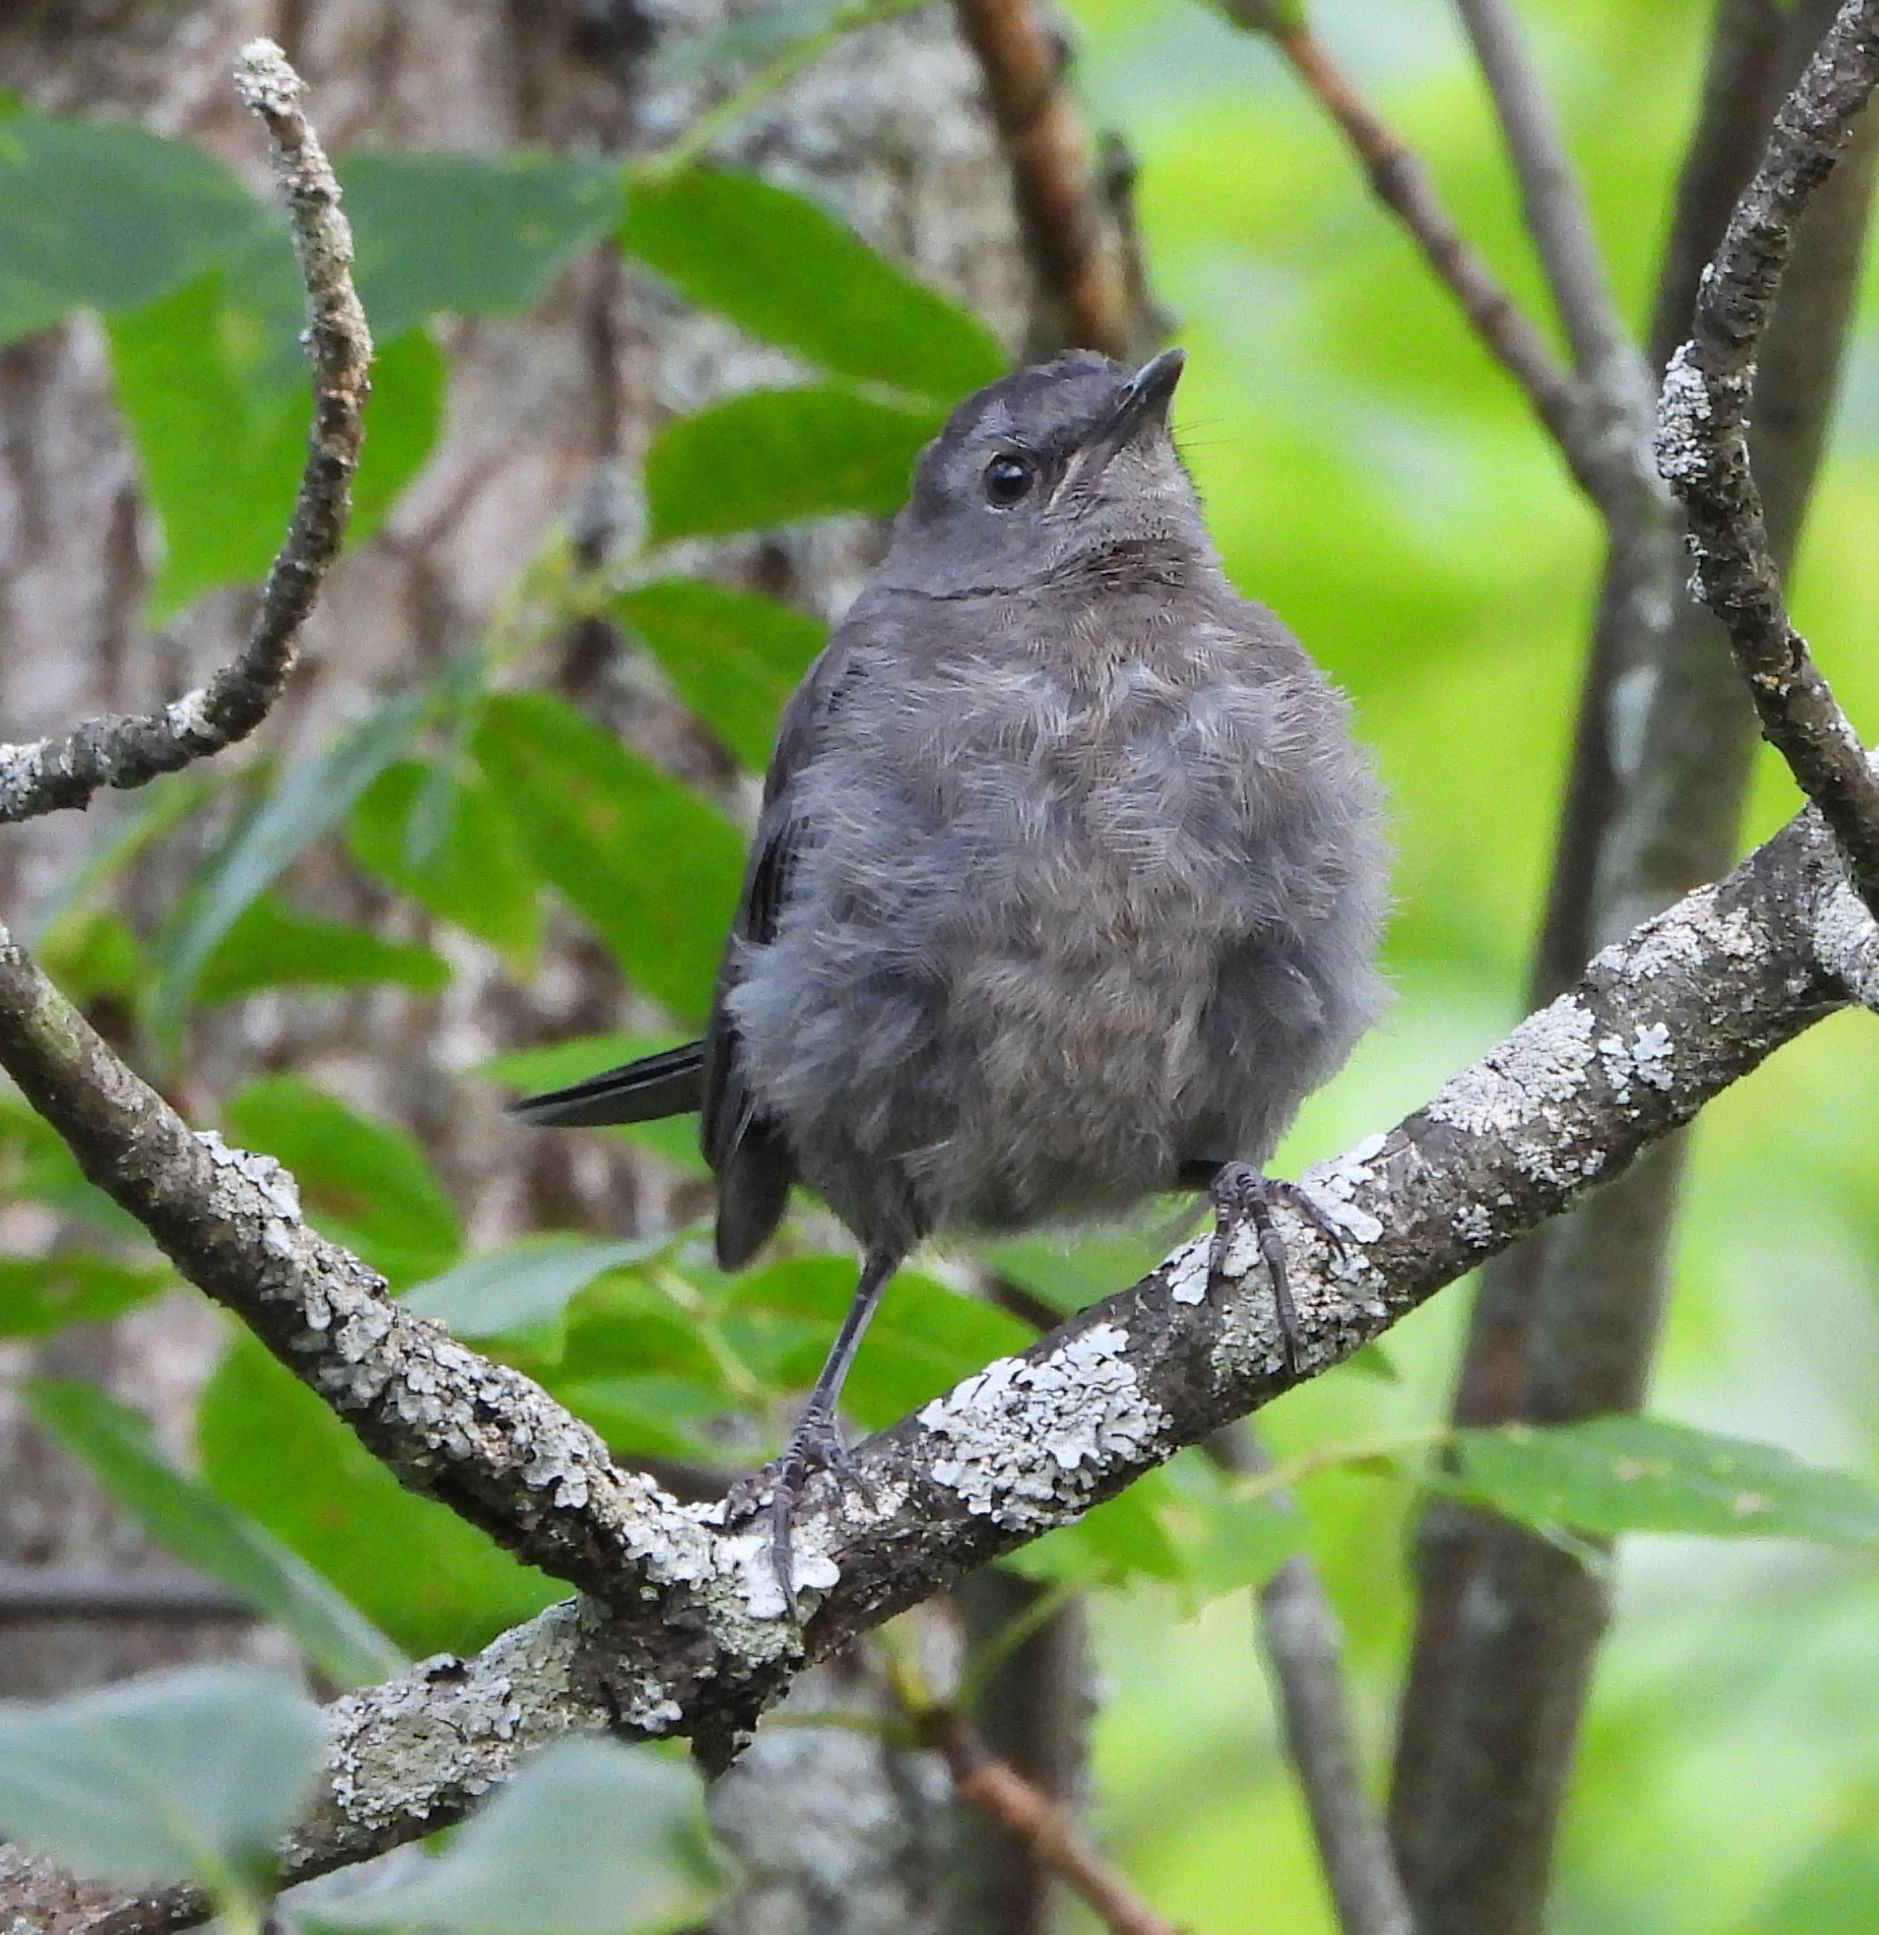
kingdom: Animalia
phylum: Chordata
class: Aves
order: Passeriformes
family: Mimidae
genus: Dumetella
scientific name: Dumetella carolinensis
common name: Gray catbird
